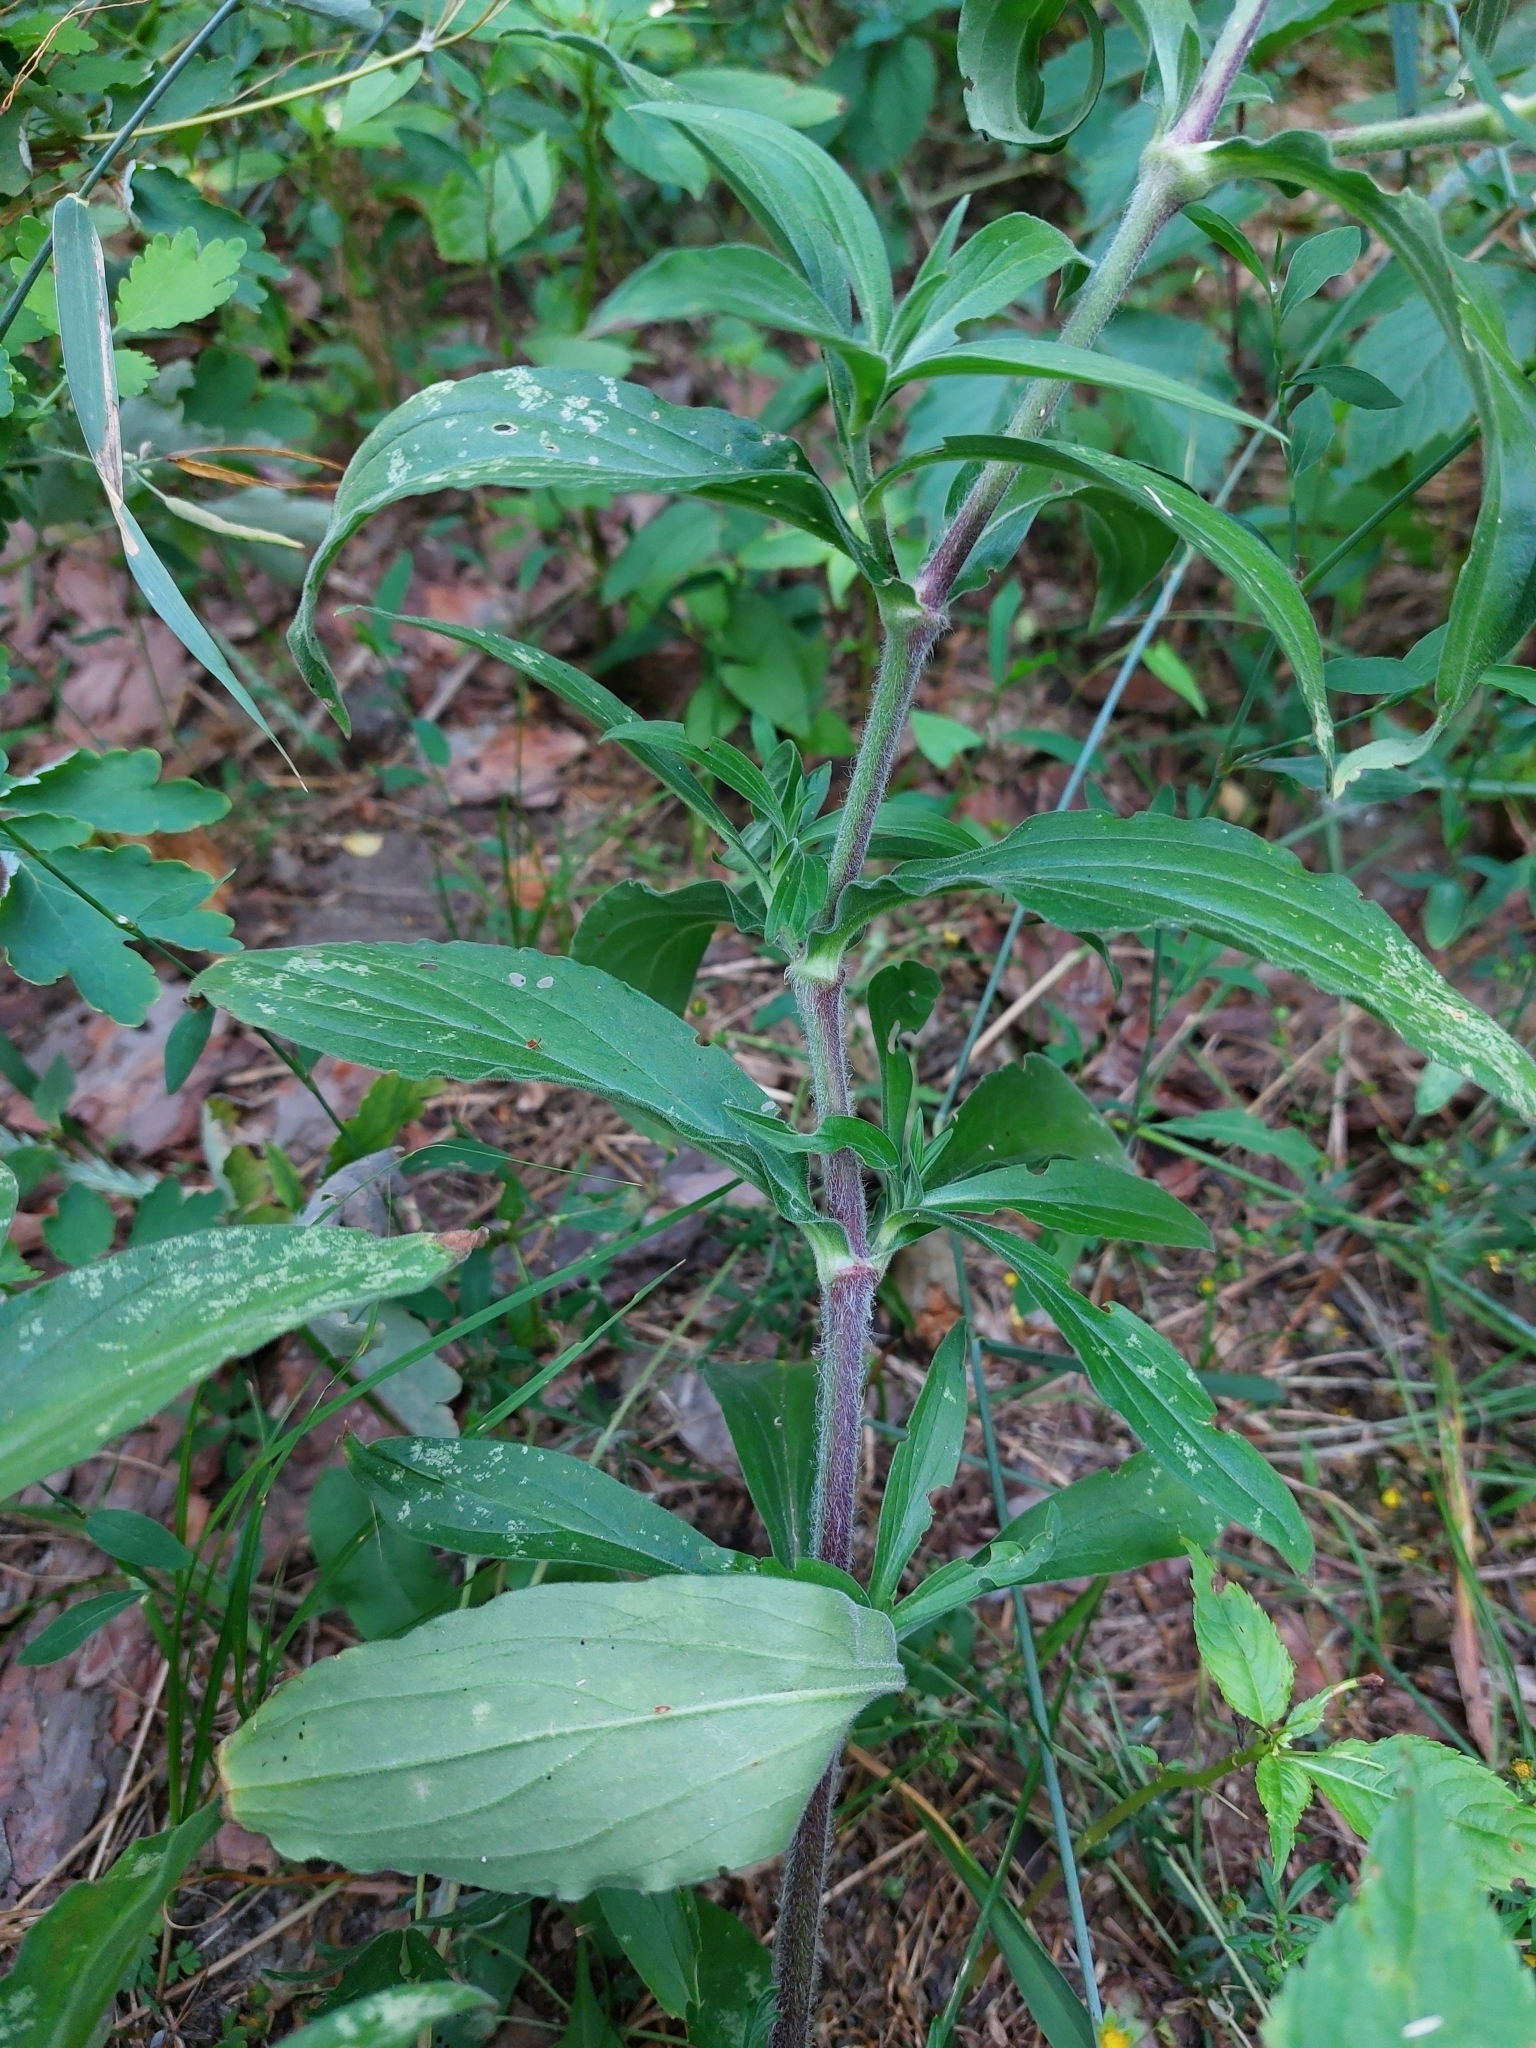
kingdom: Plantae
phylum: Tracheophyta
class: Magnoliopsida
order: Caryophyllales
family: Caryophyllaceae
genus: Silene
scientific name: Silene latifolia
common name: White campion
